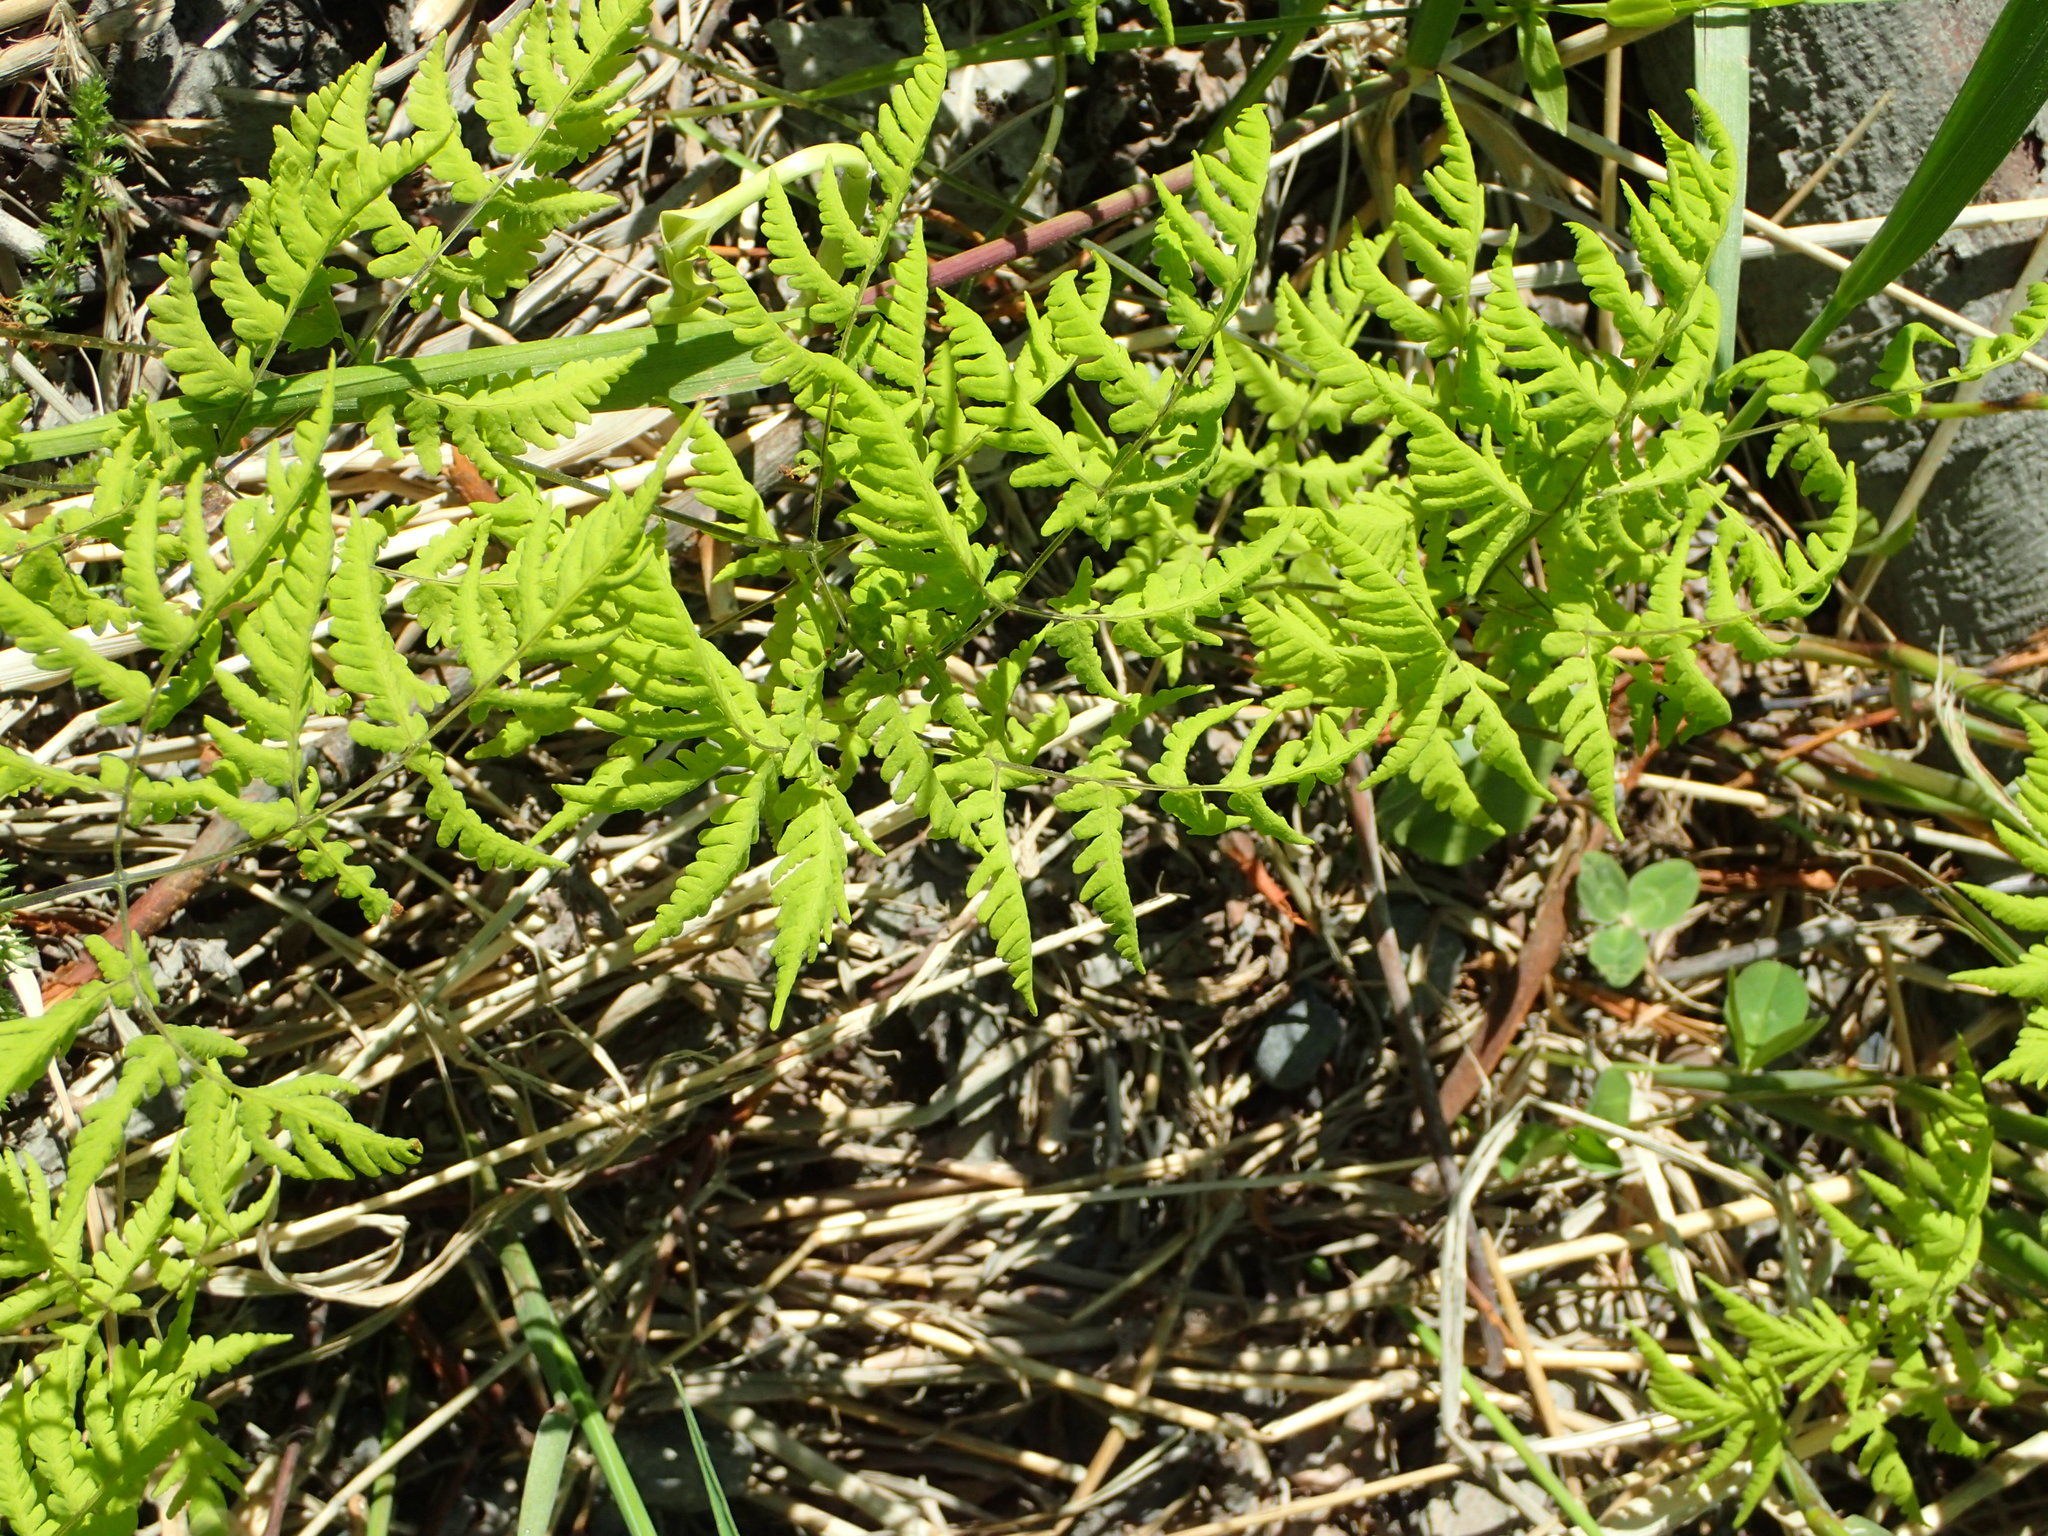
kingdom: Plantae
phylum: Tracheophyta
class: Polypodiopsida
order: Polypodiales
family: Cystopteridaceae
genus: Gymnocarpium
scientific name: Gymnocarpium dryopteris
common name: Oak fern
